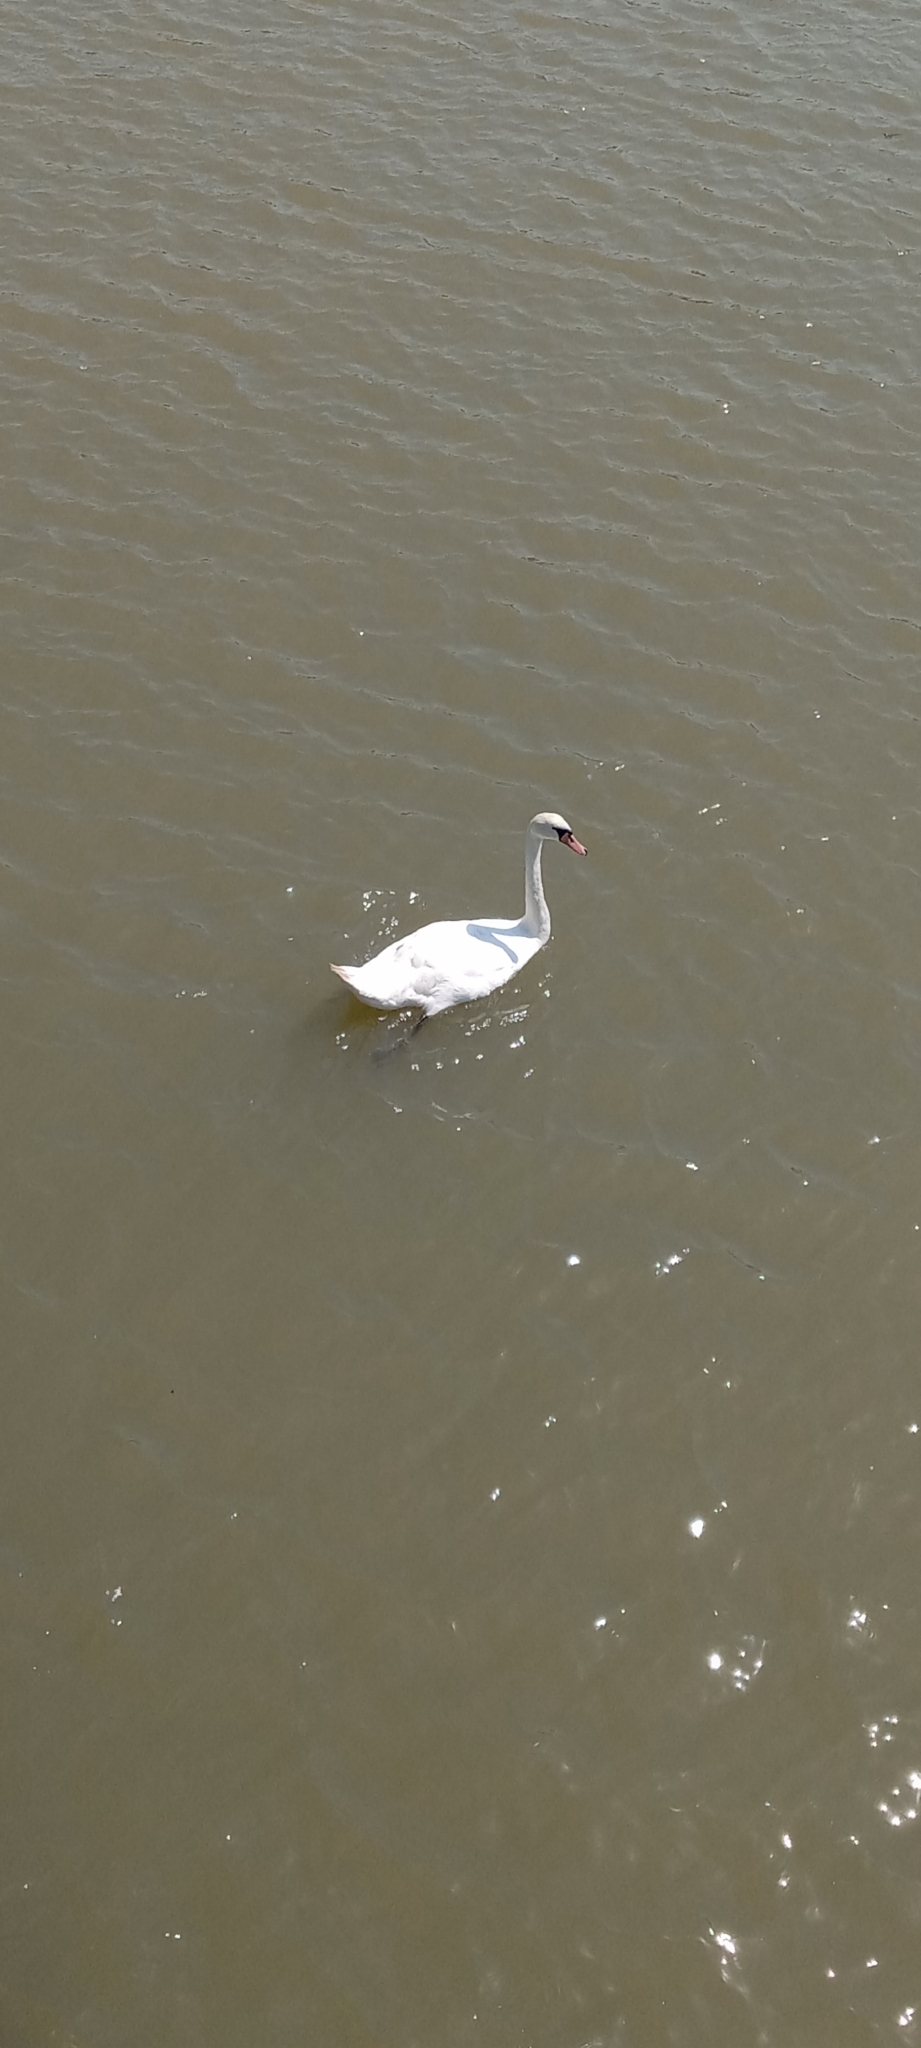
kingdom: Animalia
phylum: Chordata
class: Aves
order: Anseriformes
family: Anatidae
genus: Cygnus
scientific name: Cygnus olor
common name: Mute swan
